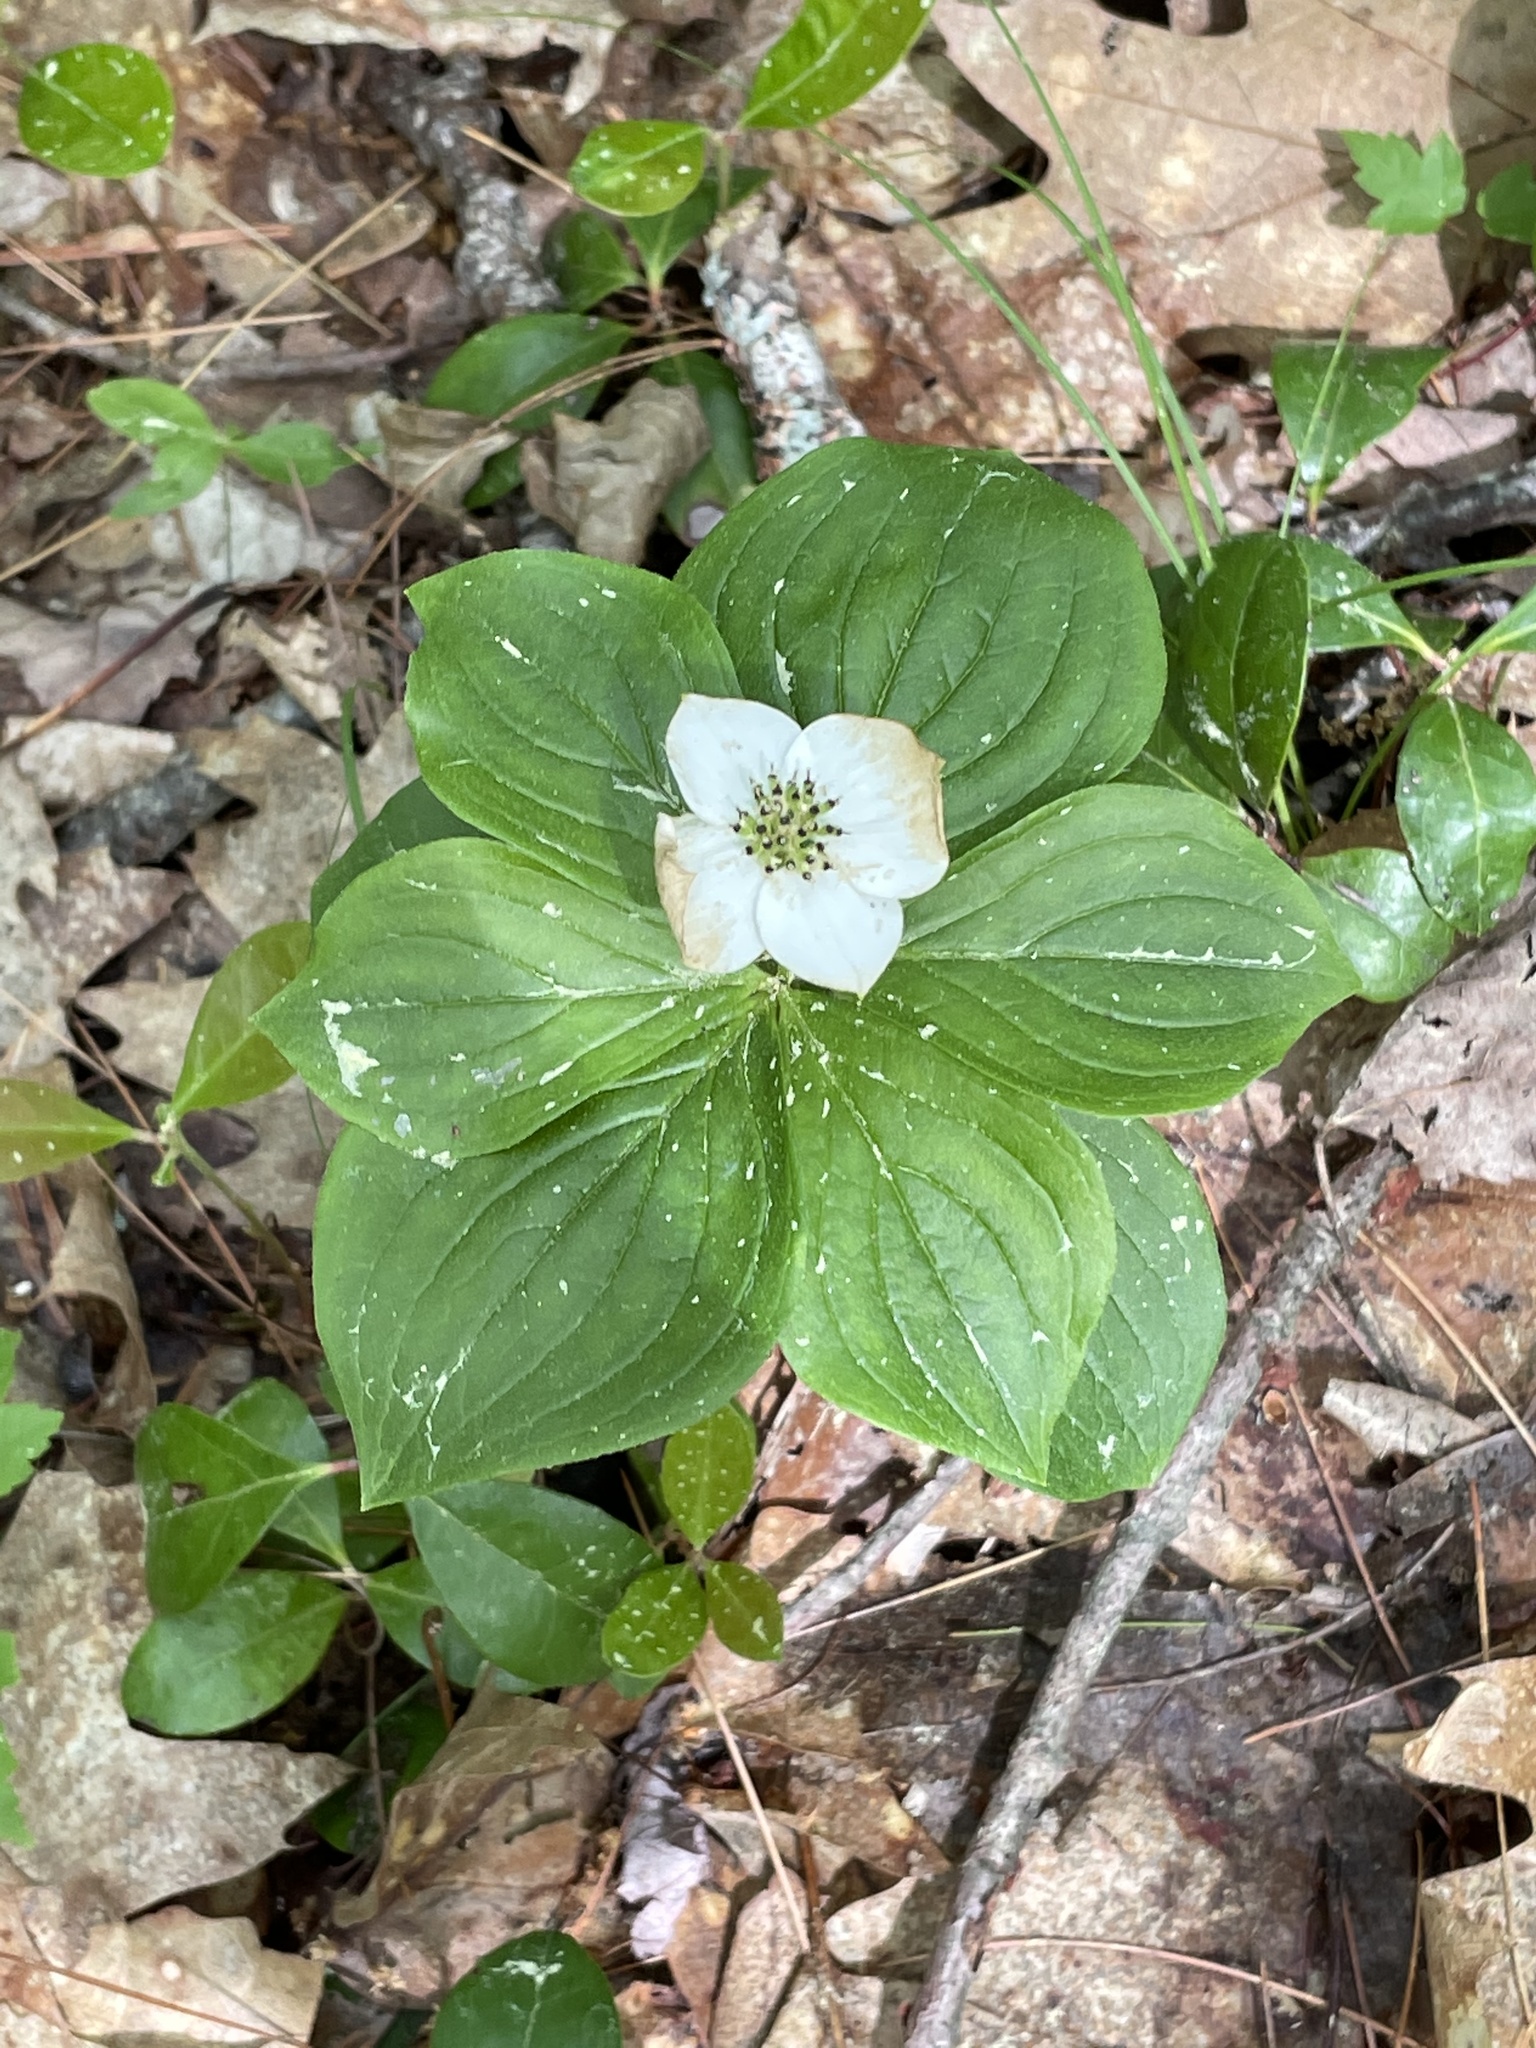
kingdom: Plantae
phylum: Tracheophyta
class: Magnoliopsida
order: Cornales
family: Cornaceae
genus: Cornus
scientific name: Cornus canadensis
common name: Creeping dogwood
